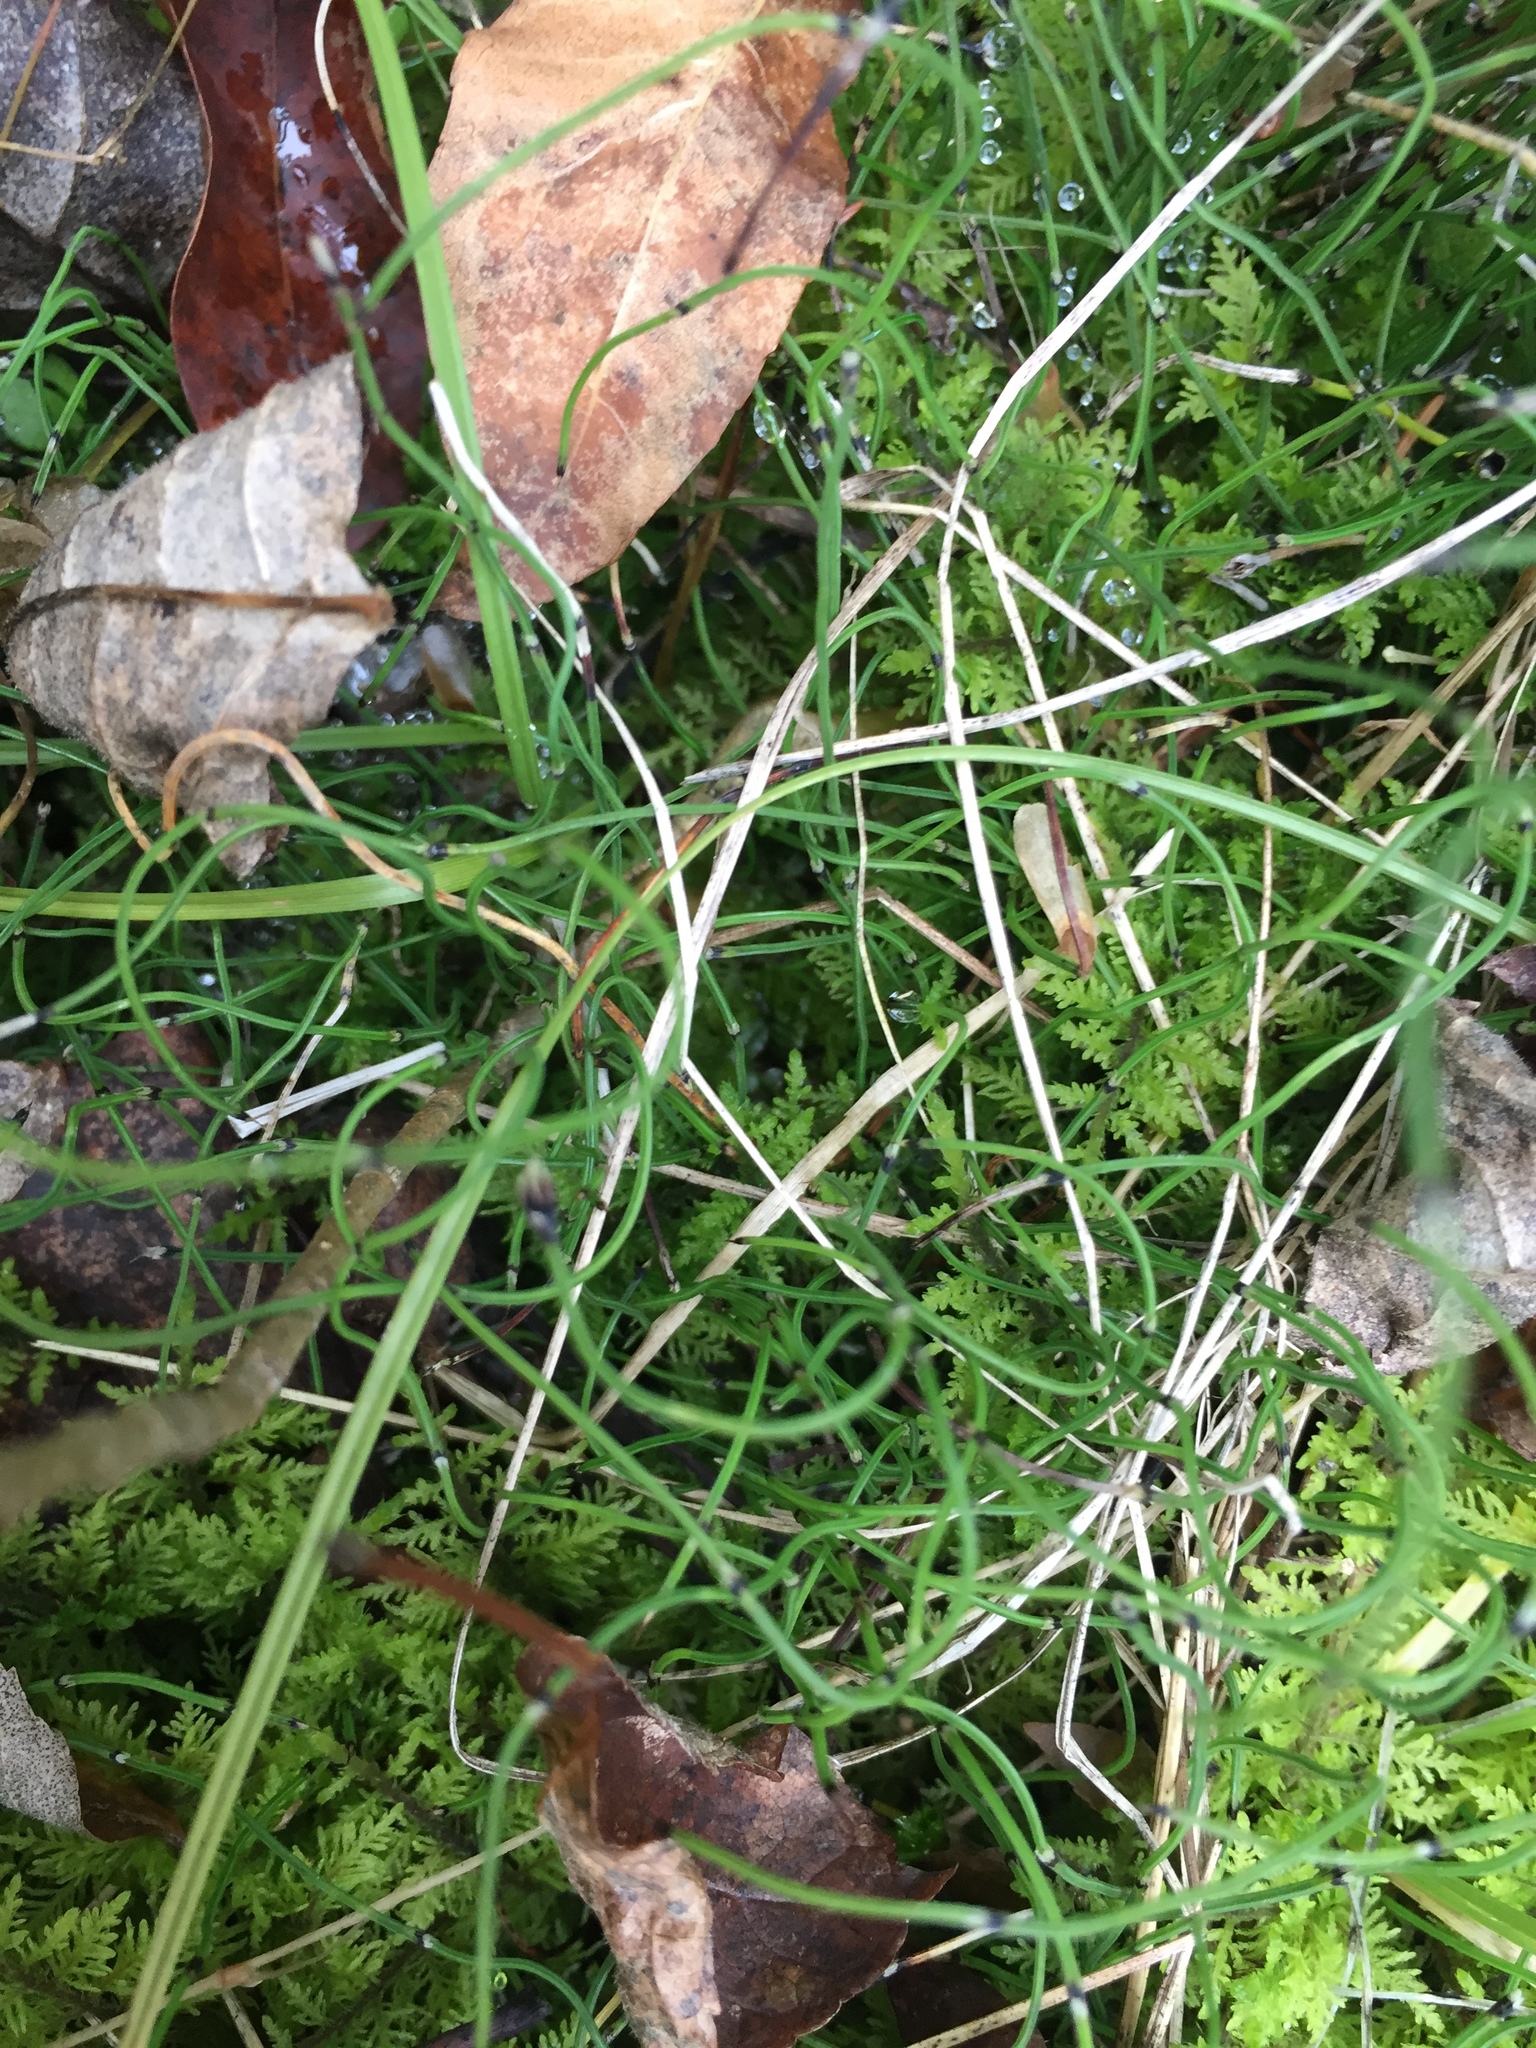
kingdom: Plantae
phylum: Tracheophyta
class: Polypodiopsida
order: Equisetales
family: Equisetaceae
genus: Equisetum
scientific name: Equisetum scirpoides
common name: Delicate horsetail
